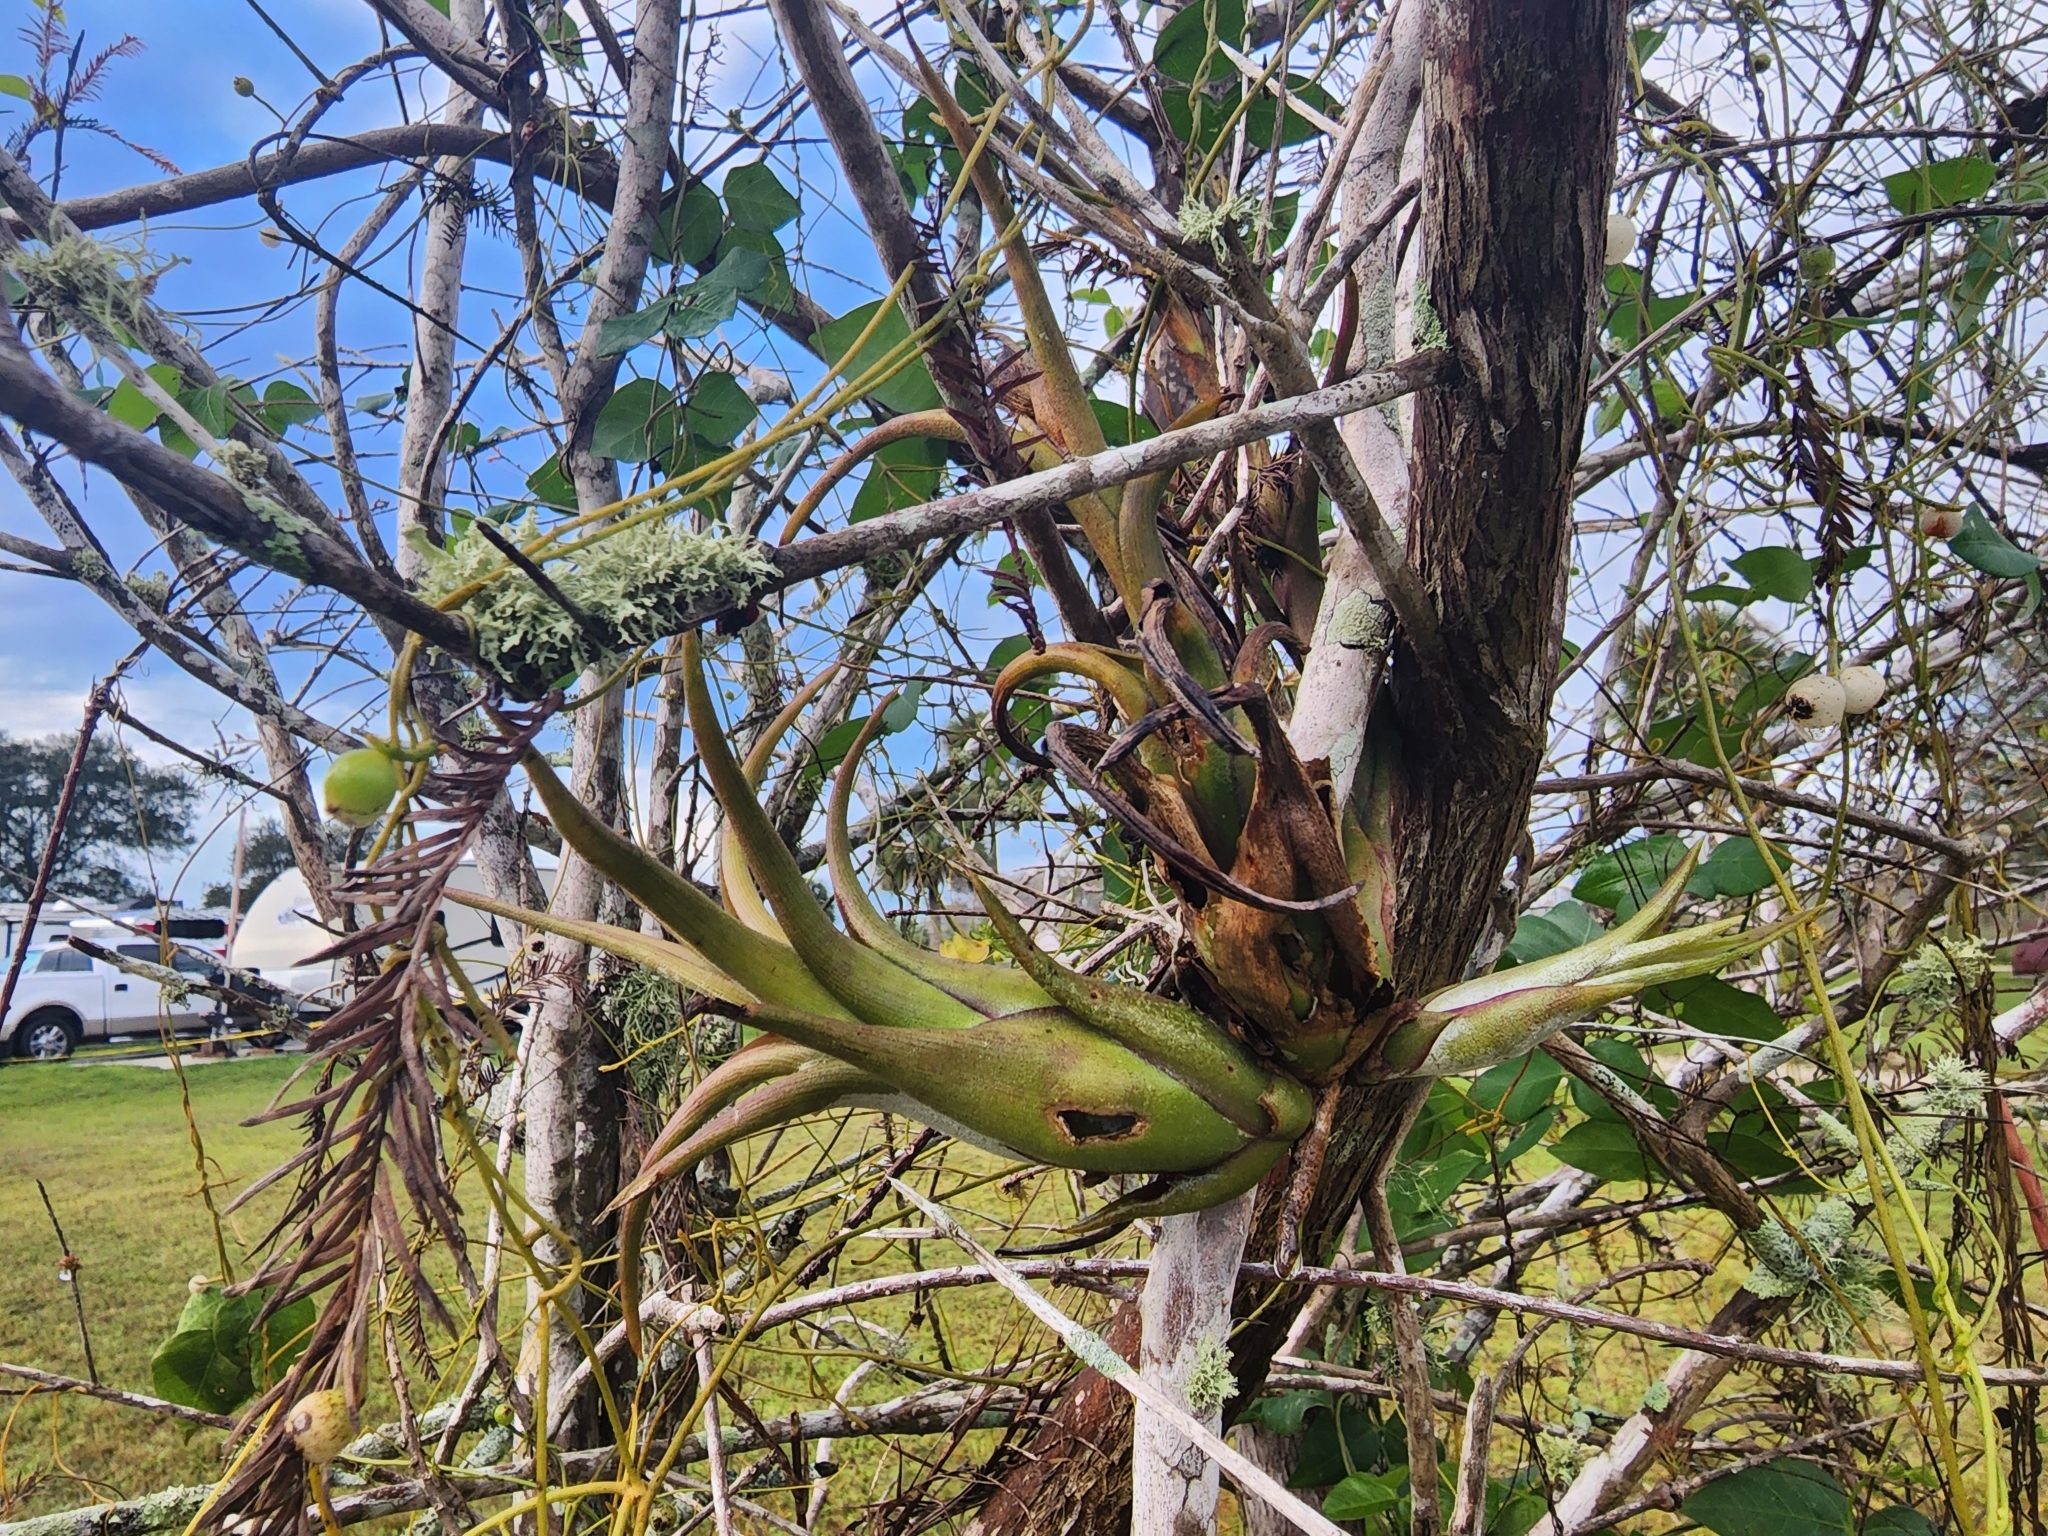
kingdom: Plantae
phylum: Tracheophyta
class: Liliopsida
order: Poales
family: Bromeliaceae
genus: Tillandsia
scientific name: Tillandsia paucifolia
